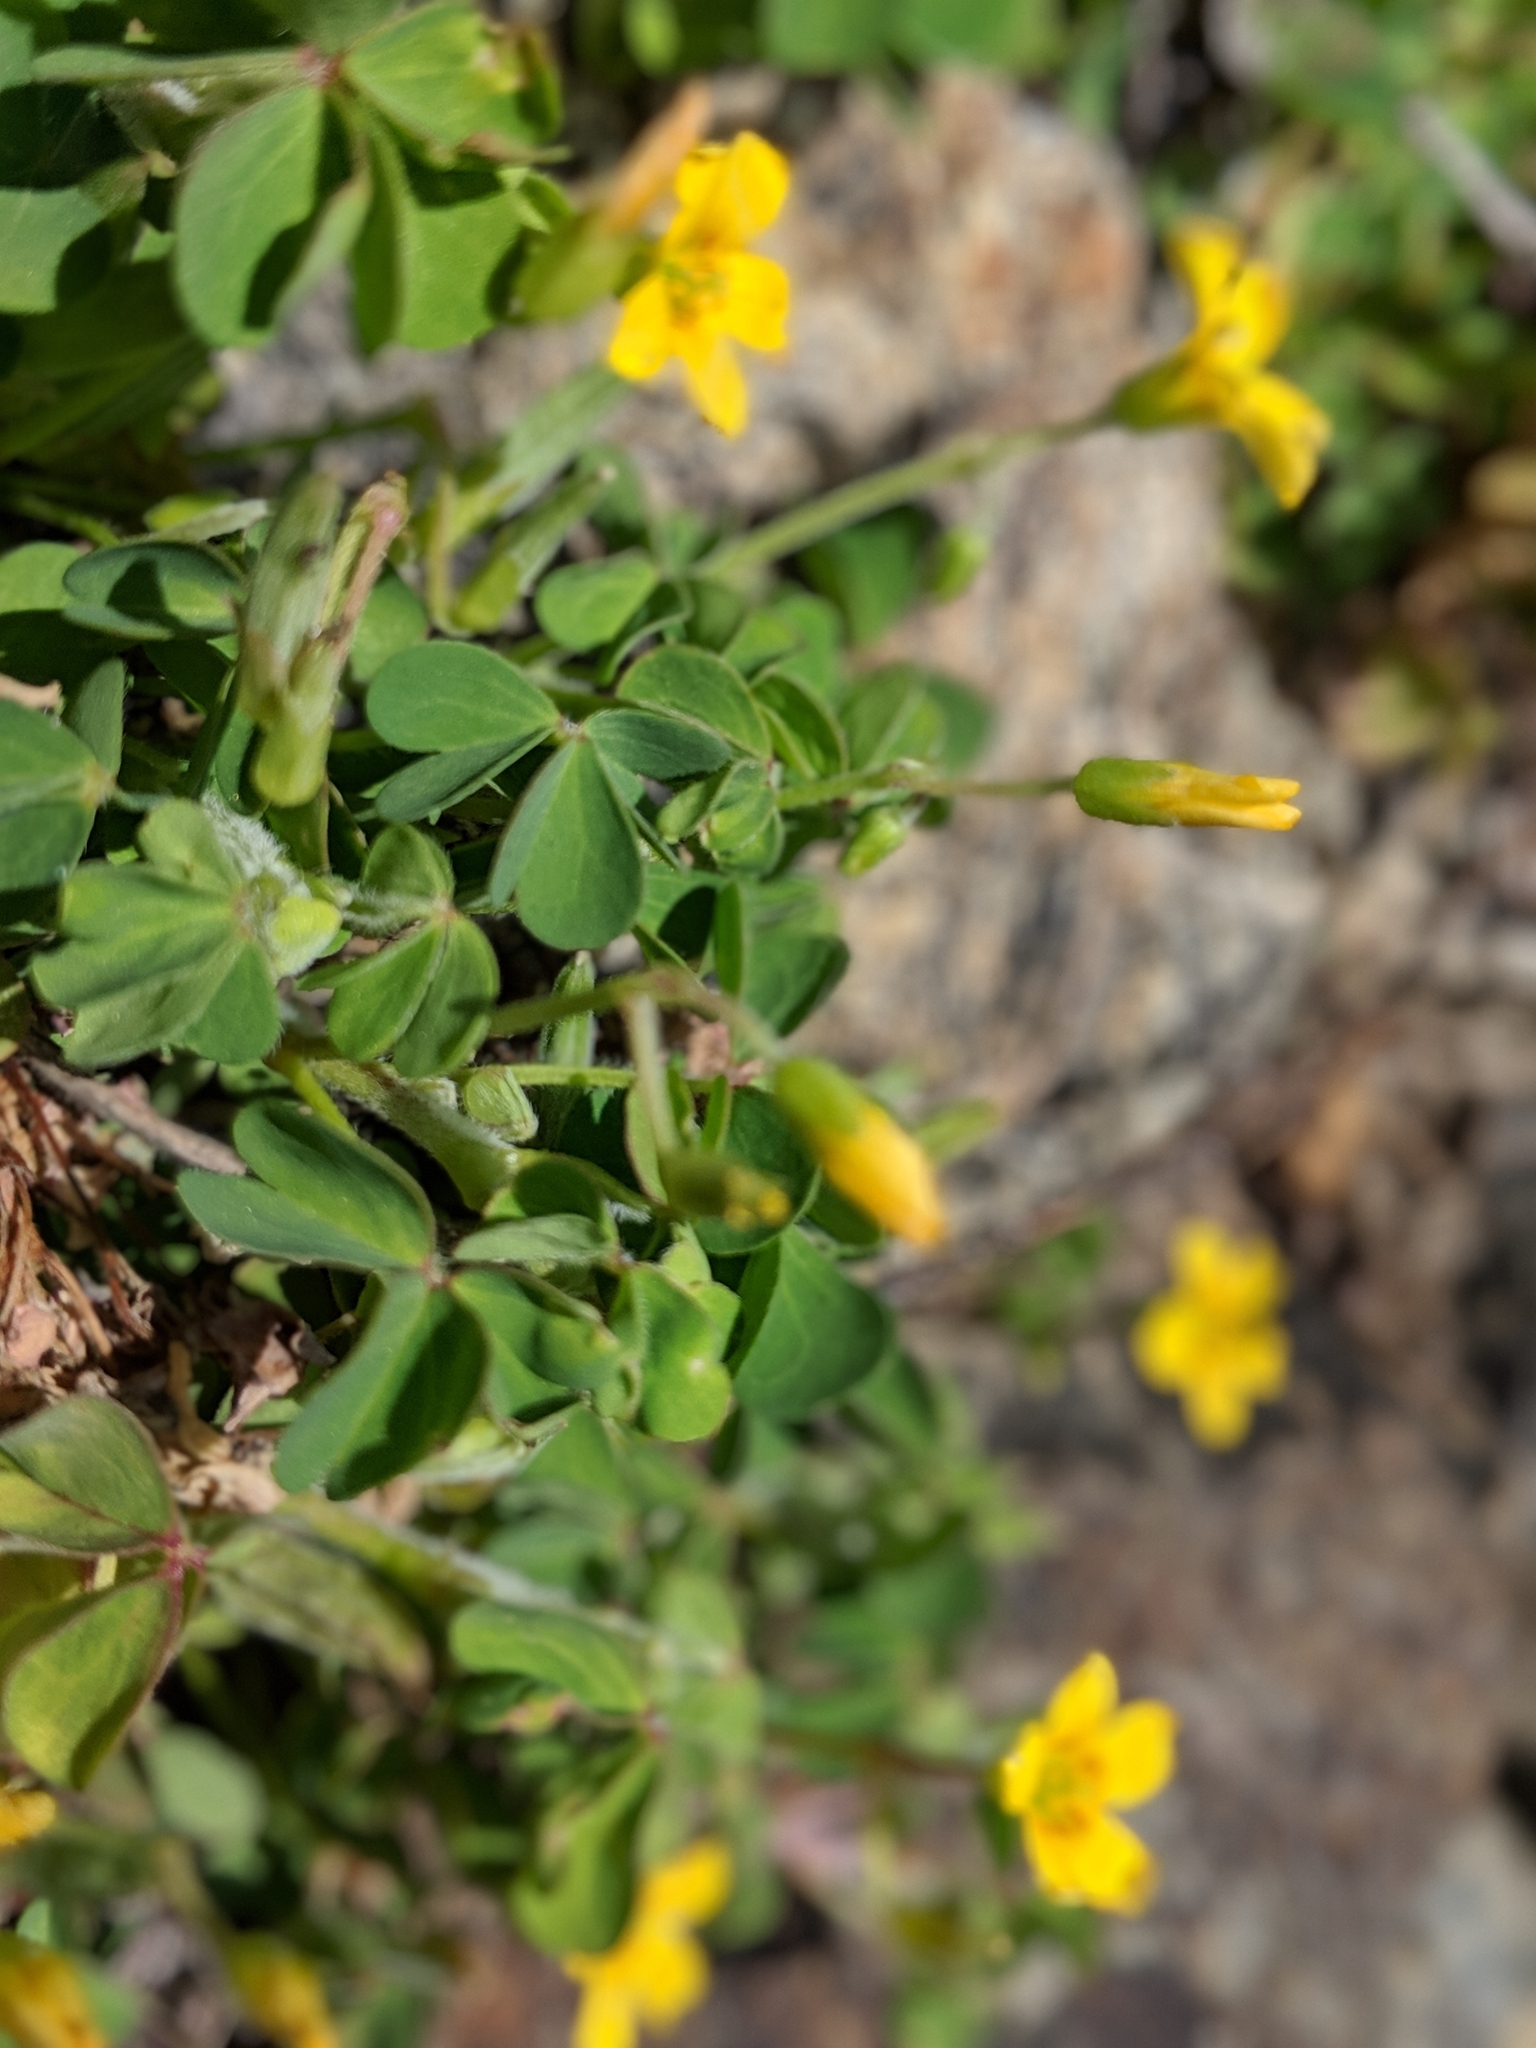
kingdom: Plantae
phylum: Tracheophyta
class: Magnoliopsida
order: Oxalidales
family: Oxalidaceae
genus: Oxalis
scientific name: Oxalis corniculata
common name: Procumbent yellow-sorrel
